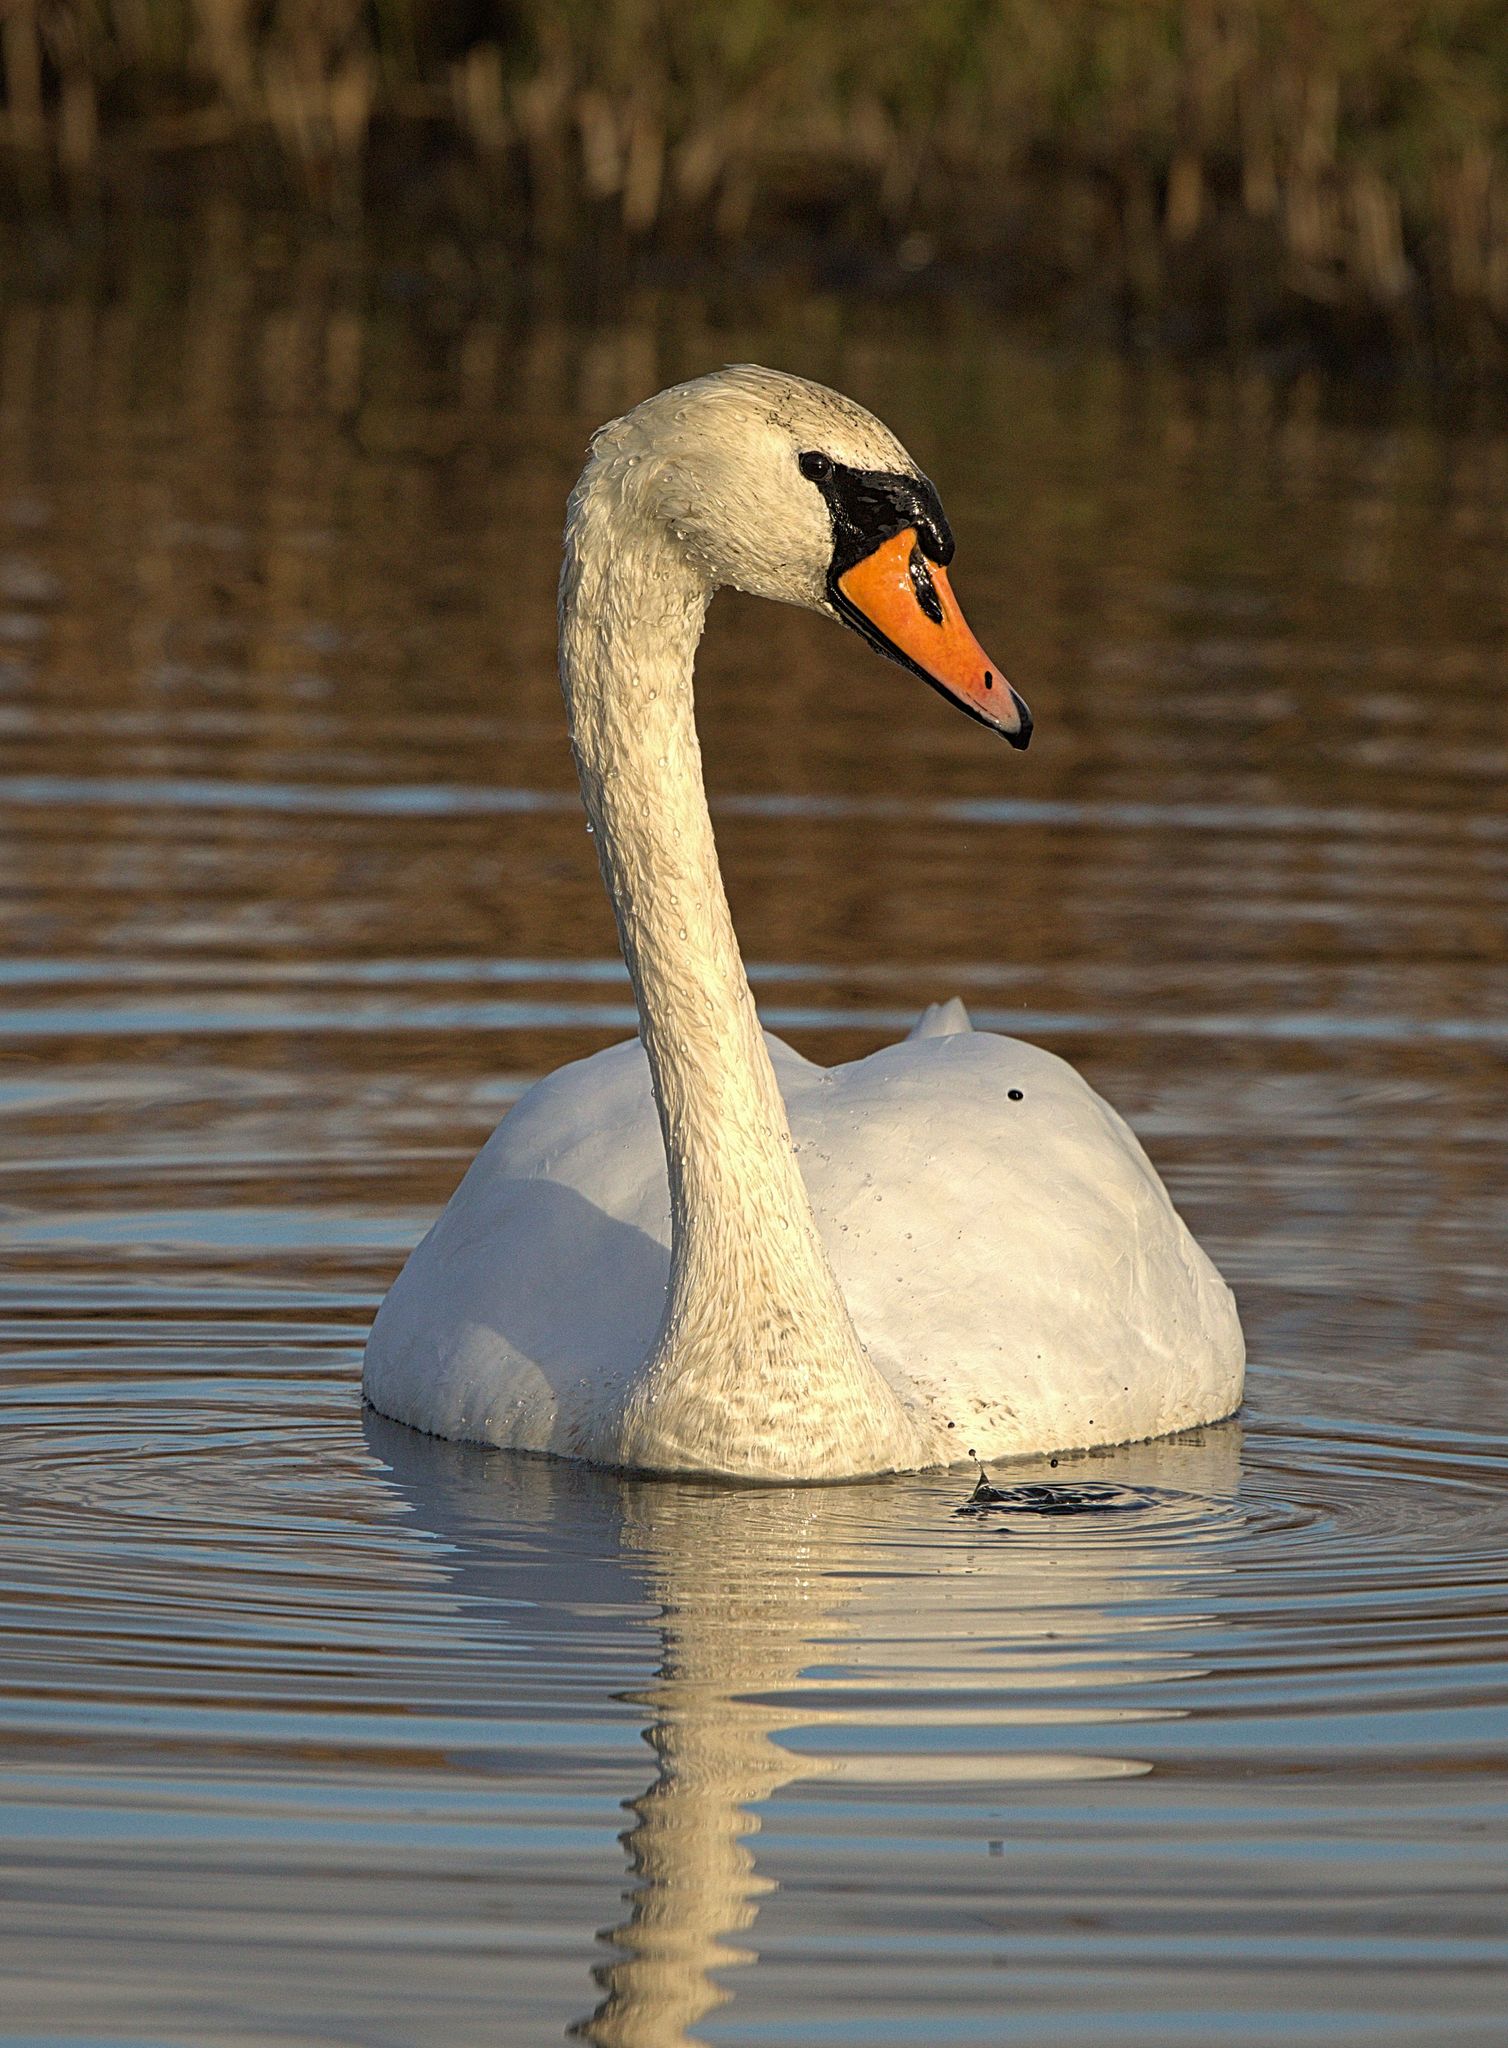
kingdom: Animalia
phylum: Chordata
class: Aves
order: Anseriformes
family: Anatidae
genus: Cygnus
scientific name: Cygnus olor
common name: Mute swan
